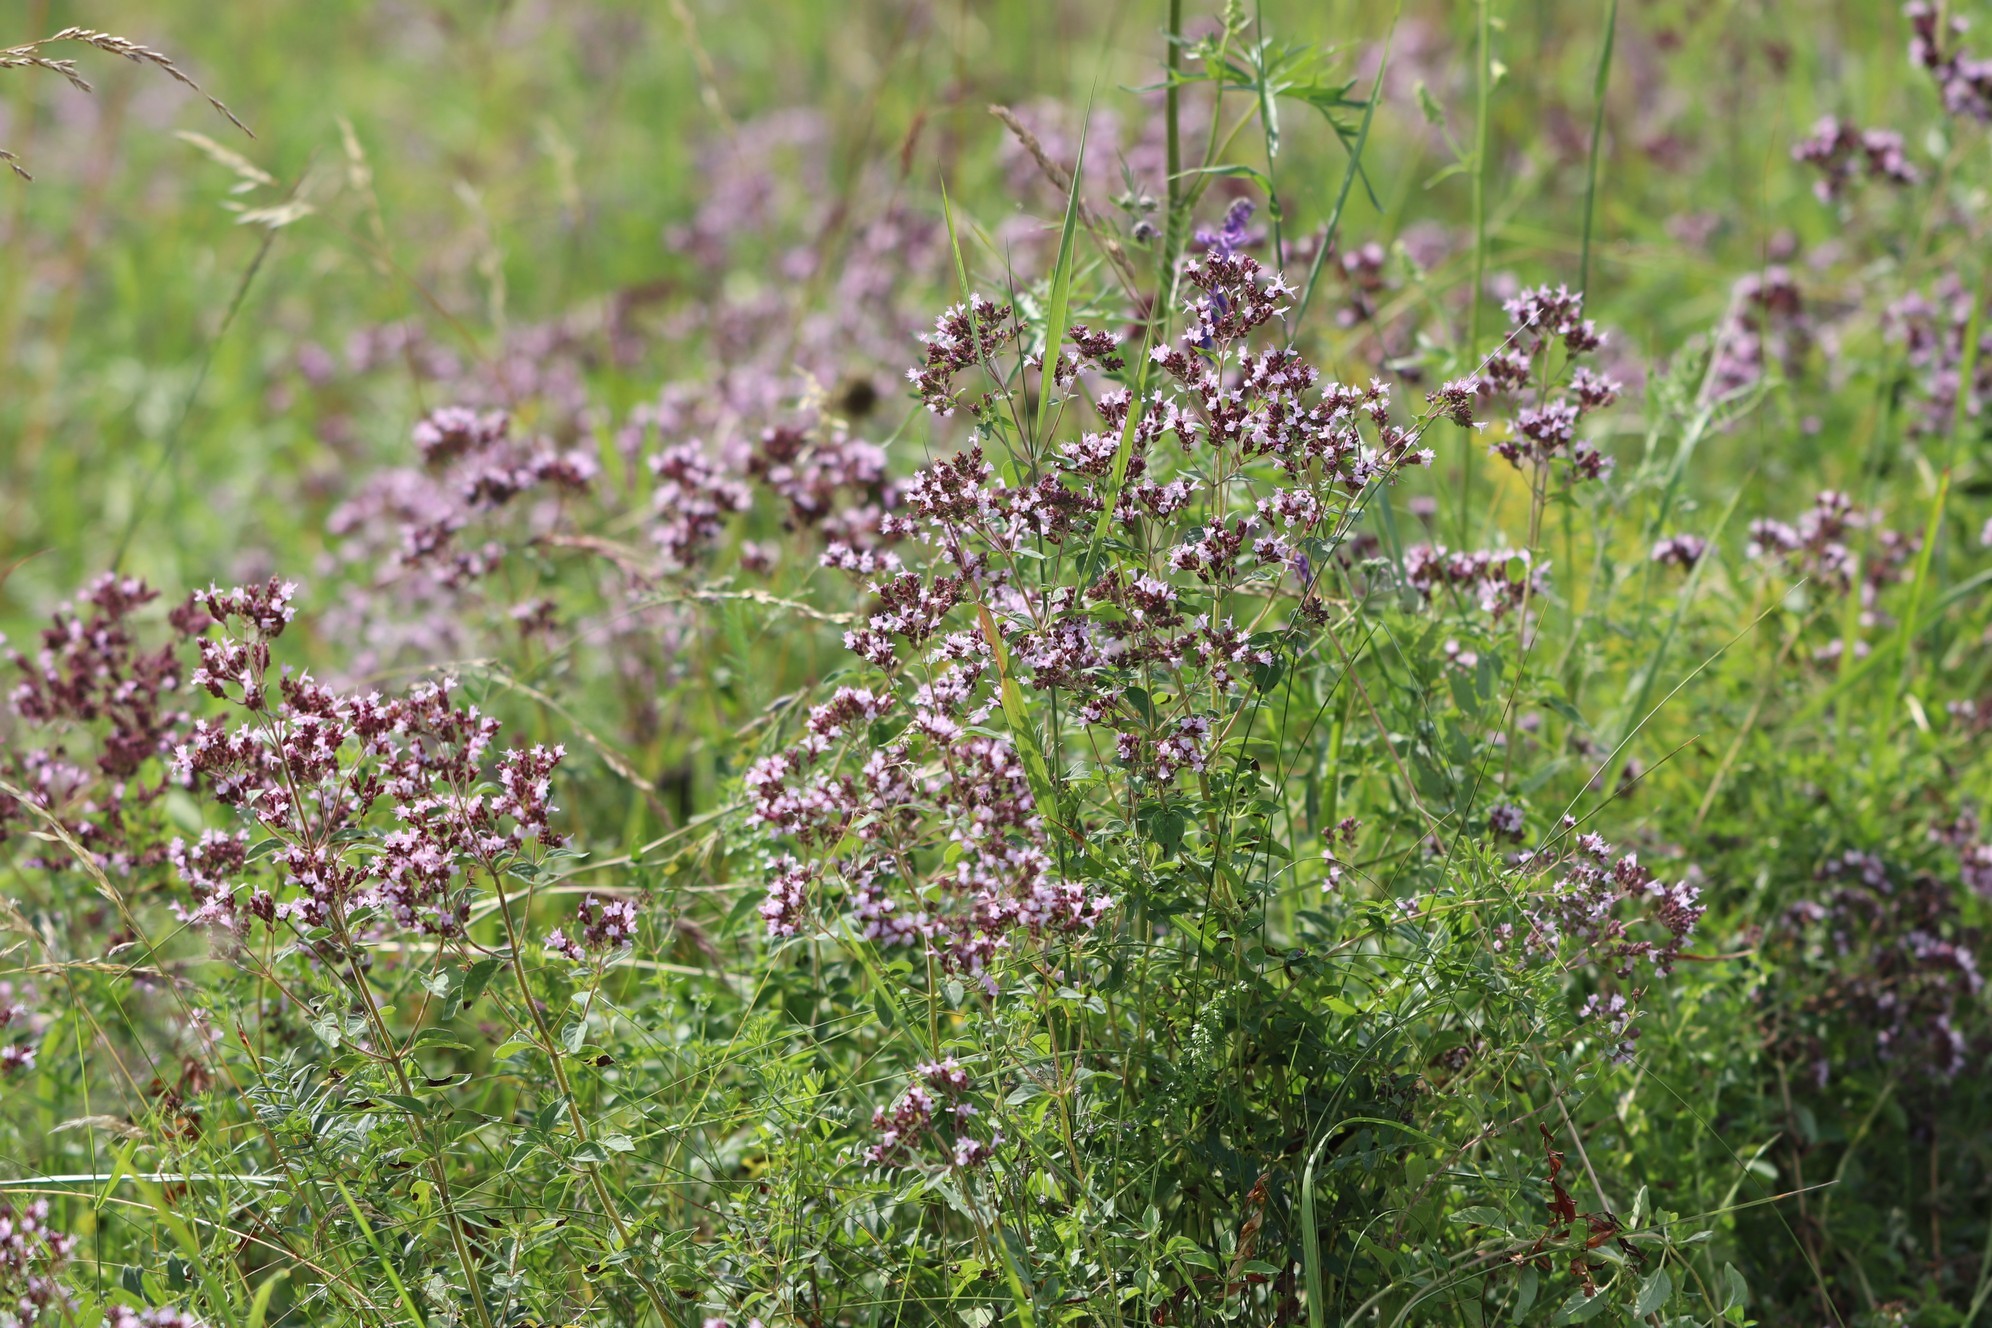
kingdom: Plantae
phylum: Tracheophyta
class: Magnoliopsida
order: Lamiales
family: Lamiaceae
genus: Origanum
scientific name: Origanum vulgare
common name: Wild marjoram
